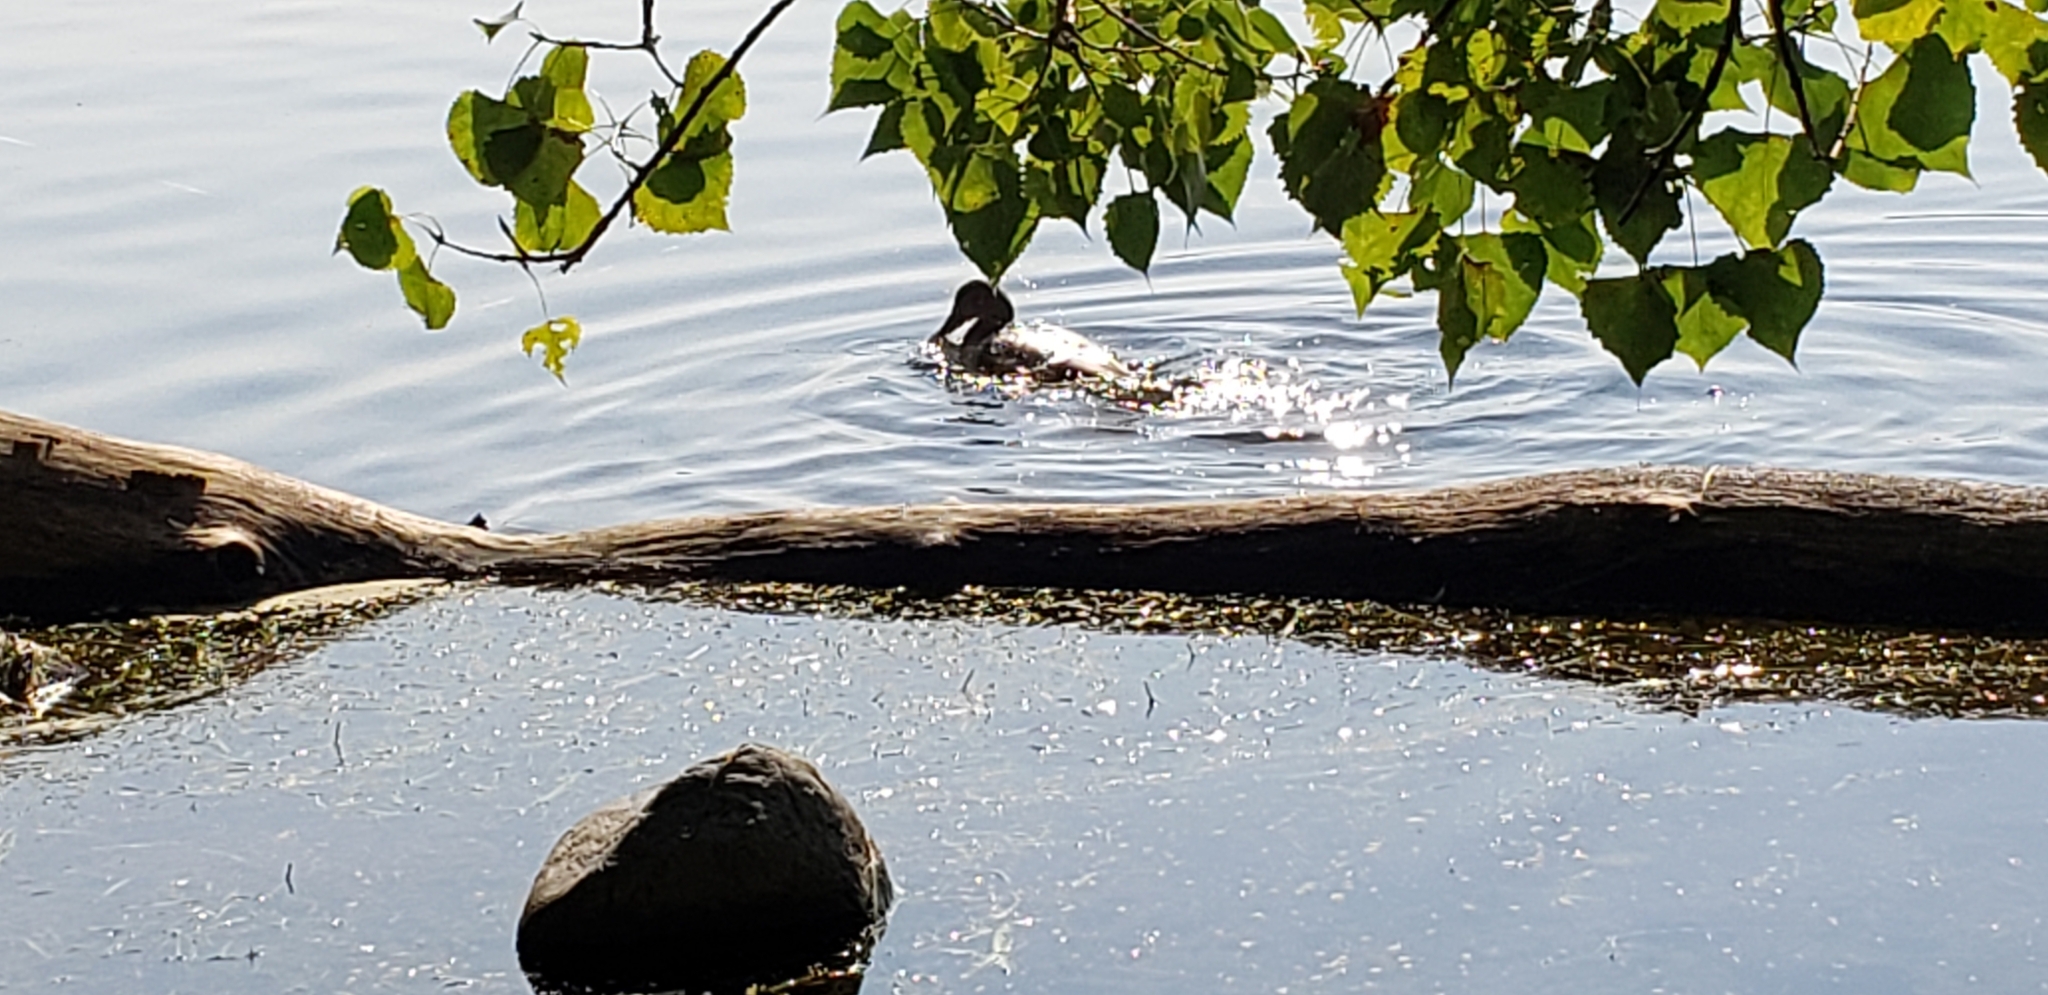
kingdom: Animalia
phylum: Chordata
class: Aves
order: Anseriformes
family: Anatidae
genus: Anas
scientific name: Anas platyrhynchos
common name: Mallard
